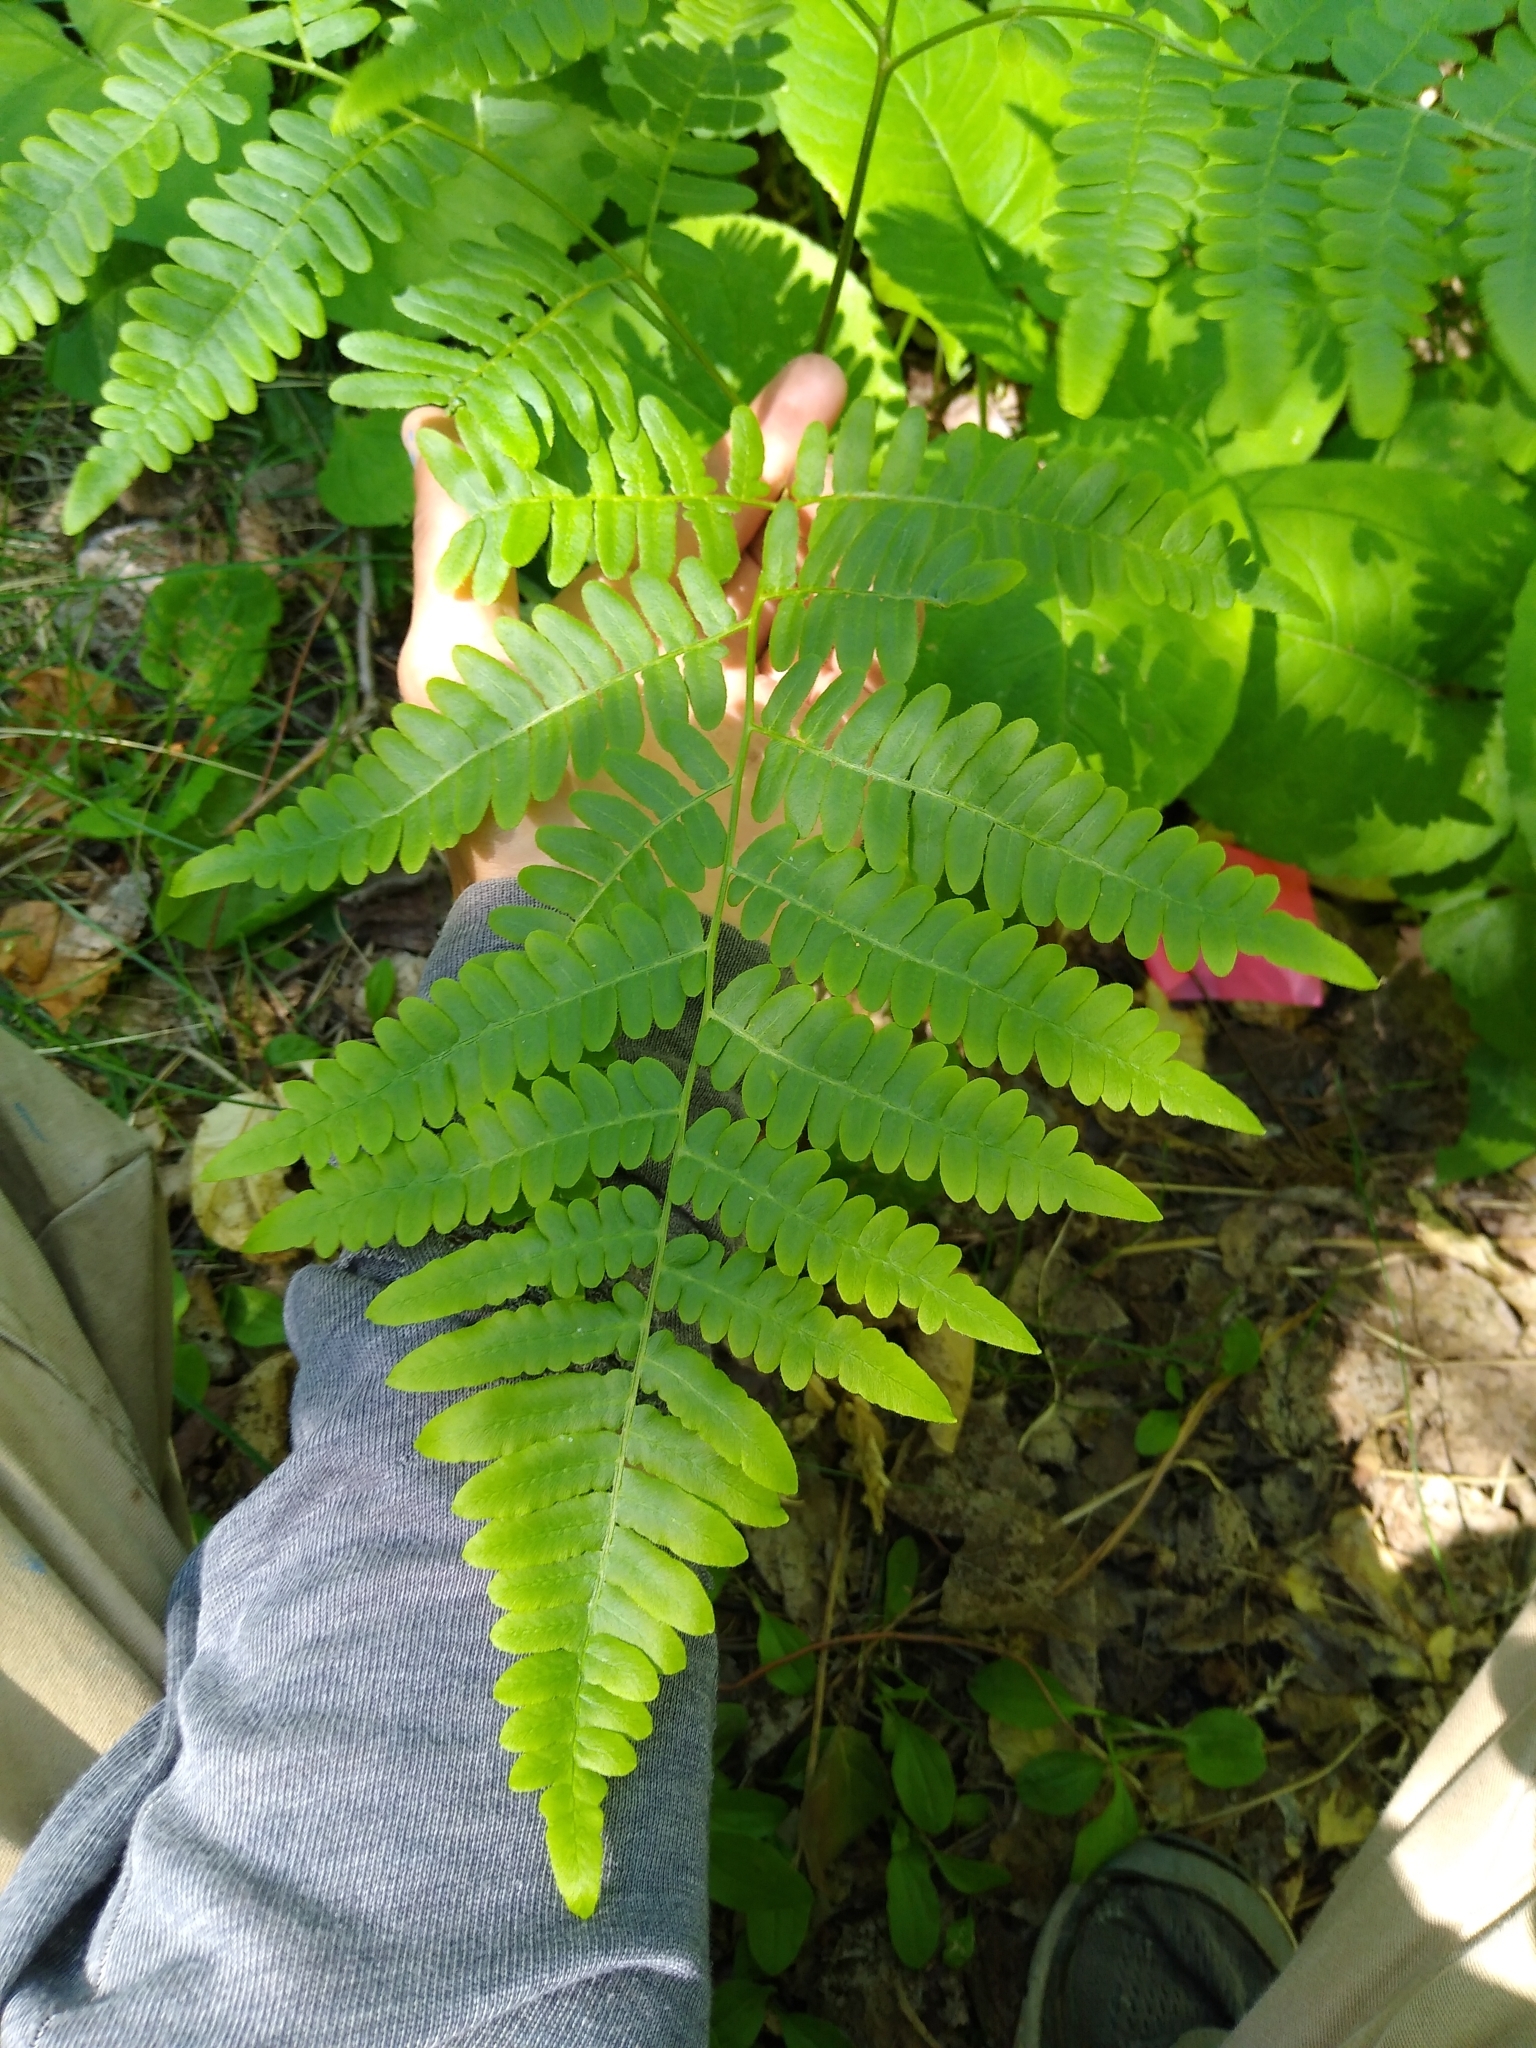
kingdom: Plantae
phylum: Tracheophyta
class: Polypodiopsida
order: Polypodiales
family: Dennstaedtiaceae
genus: Pteridium
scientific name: Pteridium aquilinum
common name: Bracken
